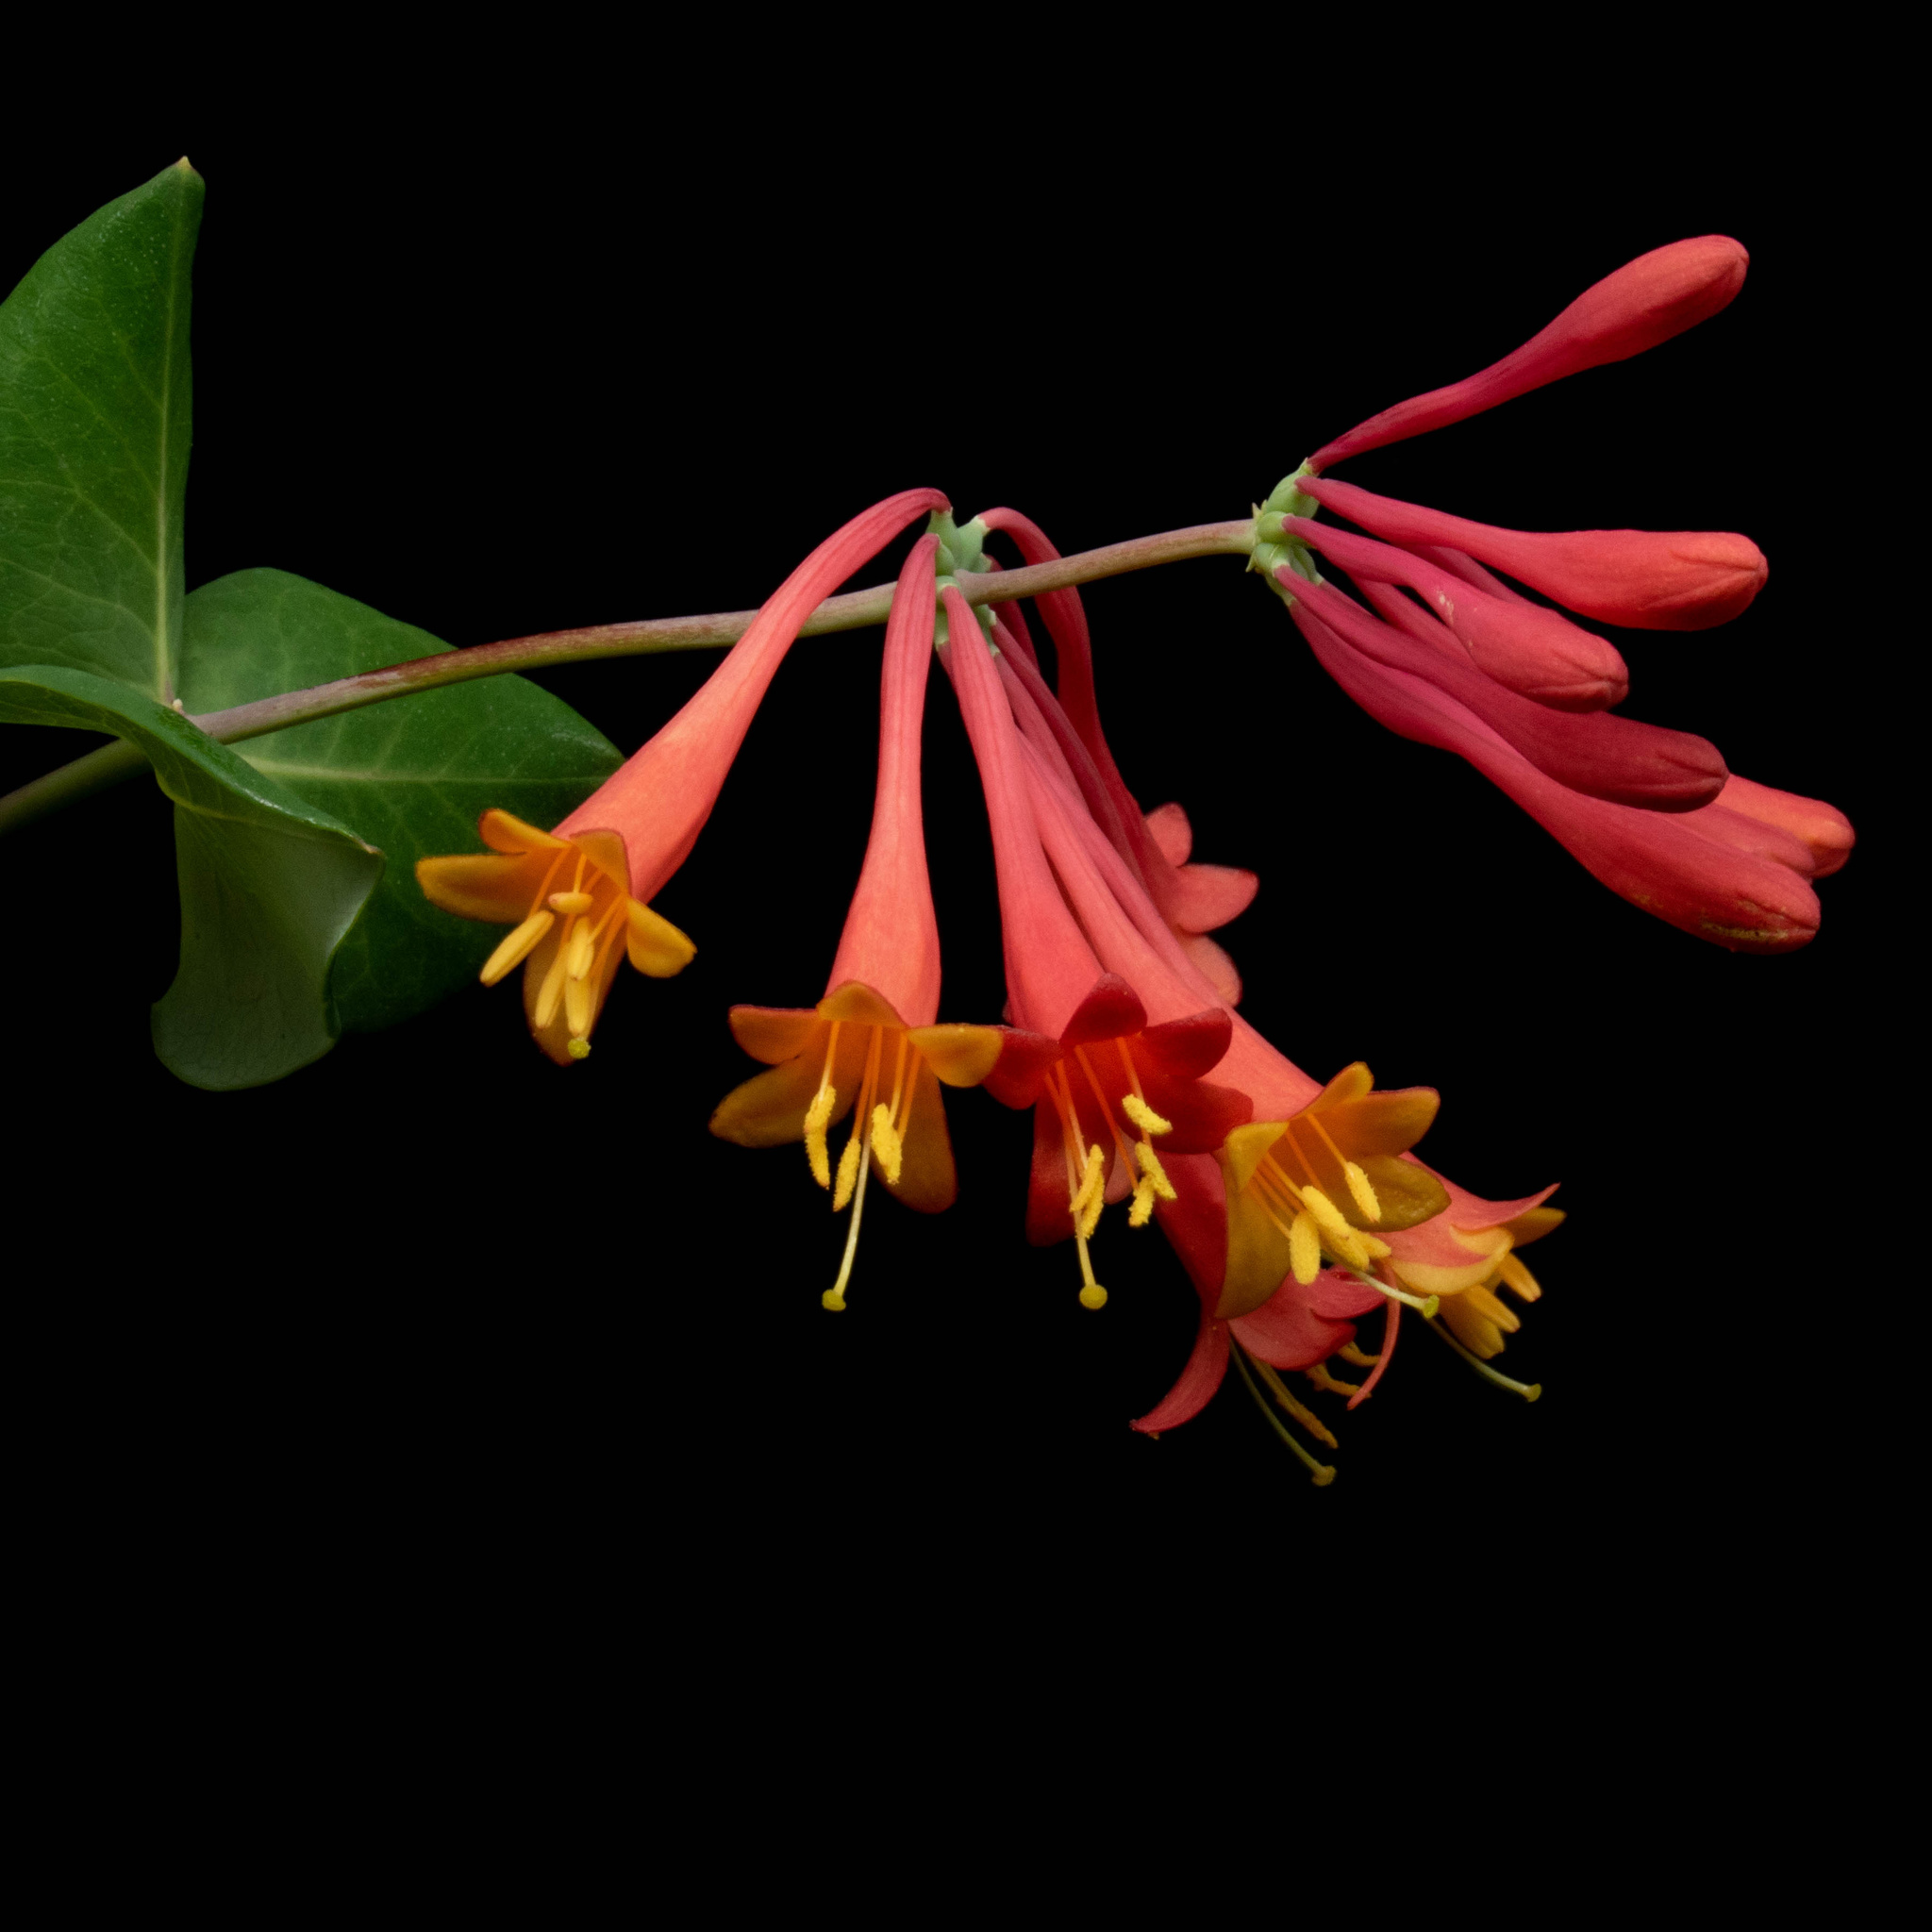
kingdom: Plantae
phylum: Tracheophyta
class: Magnoliopsida
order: Dipsacales
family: Caprifoliaceae
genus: Lonicera
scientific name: Lonicera sempervirens
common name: Coral honeysuckle
